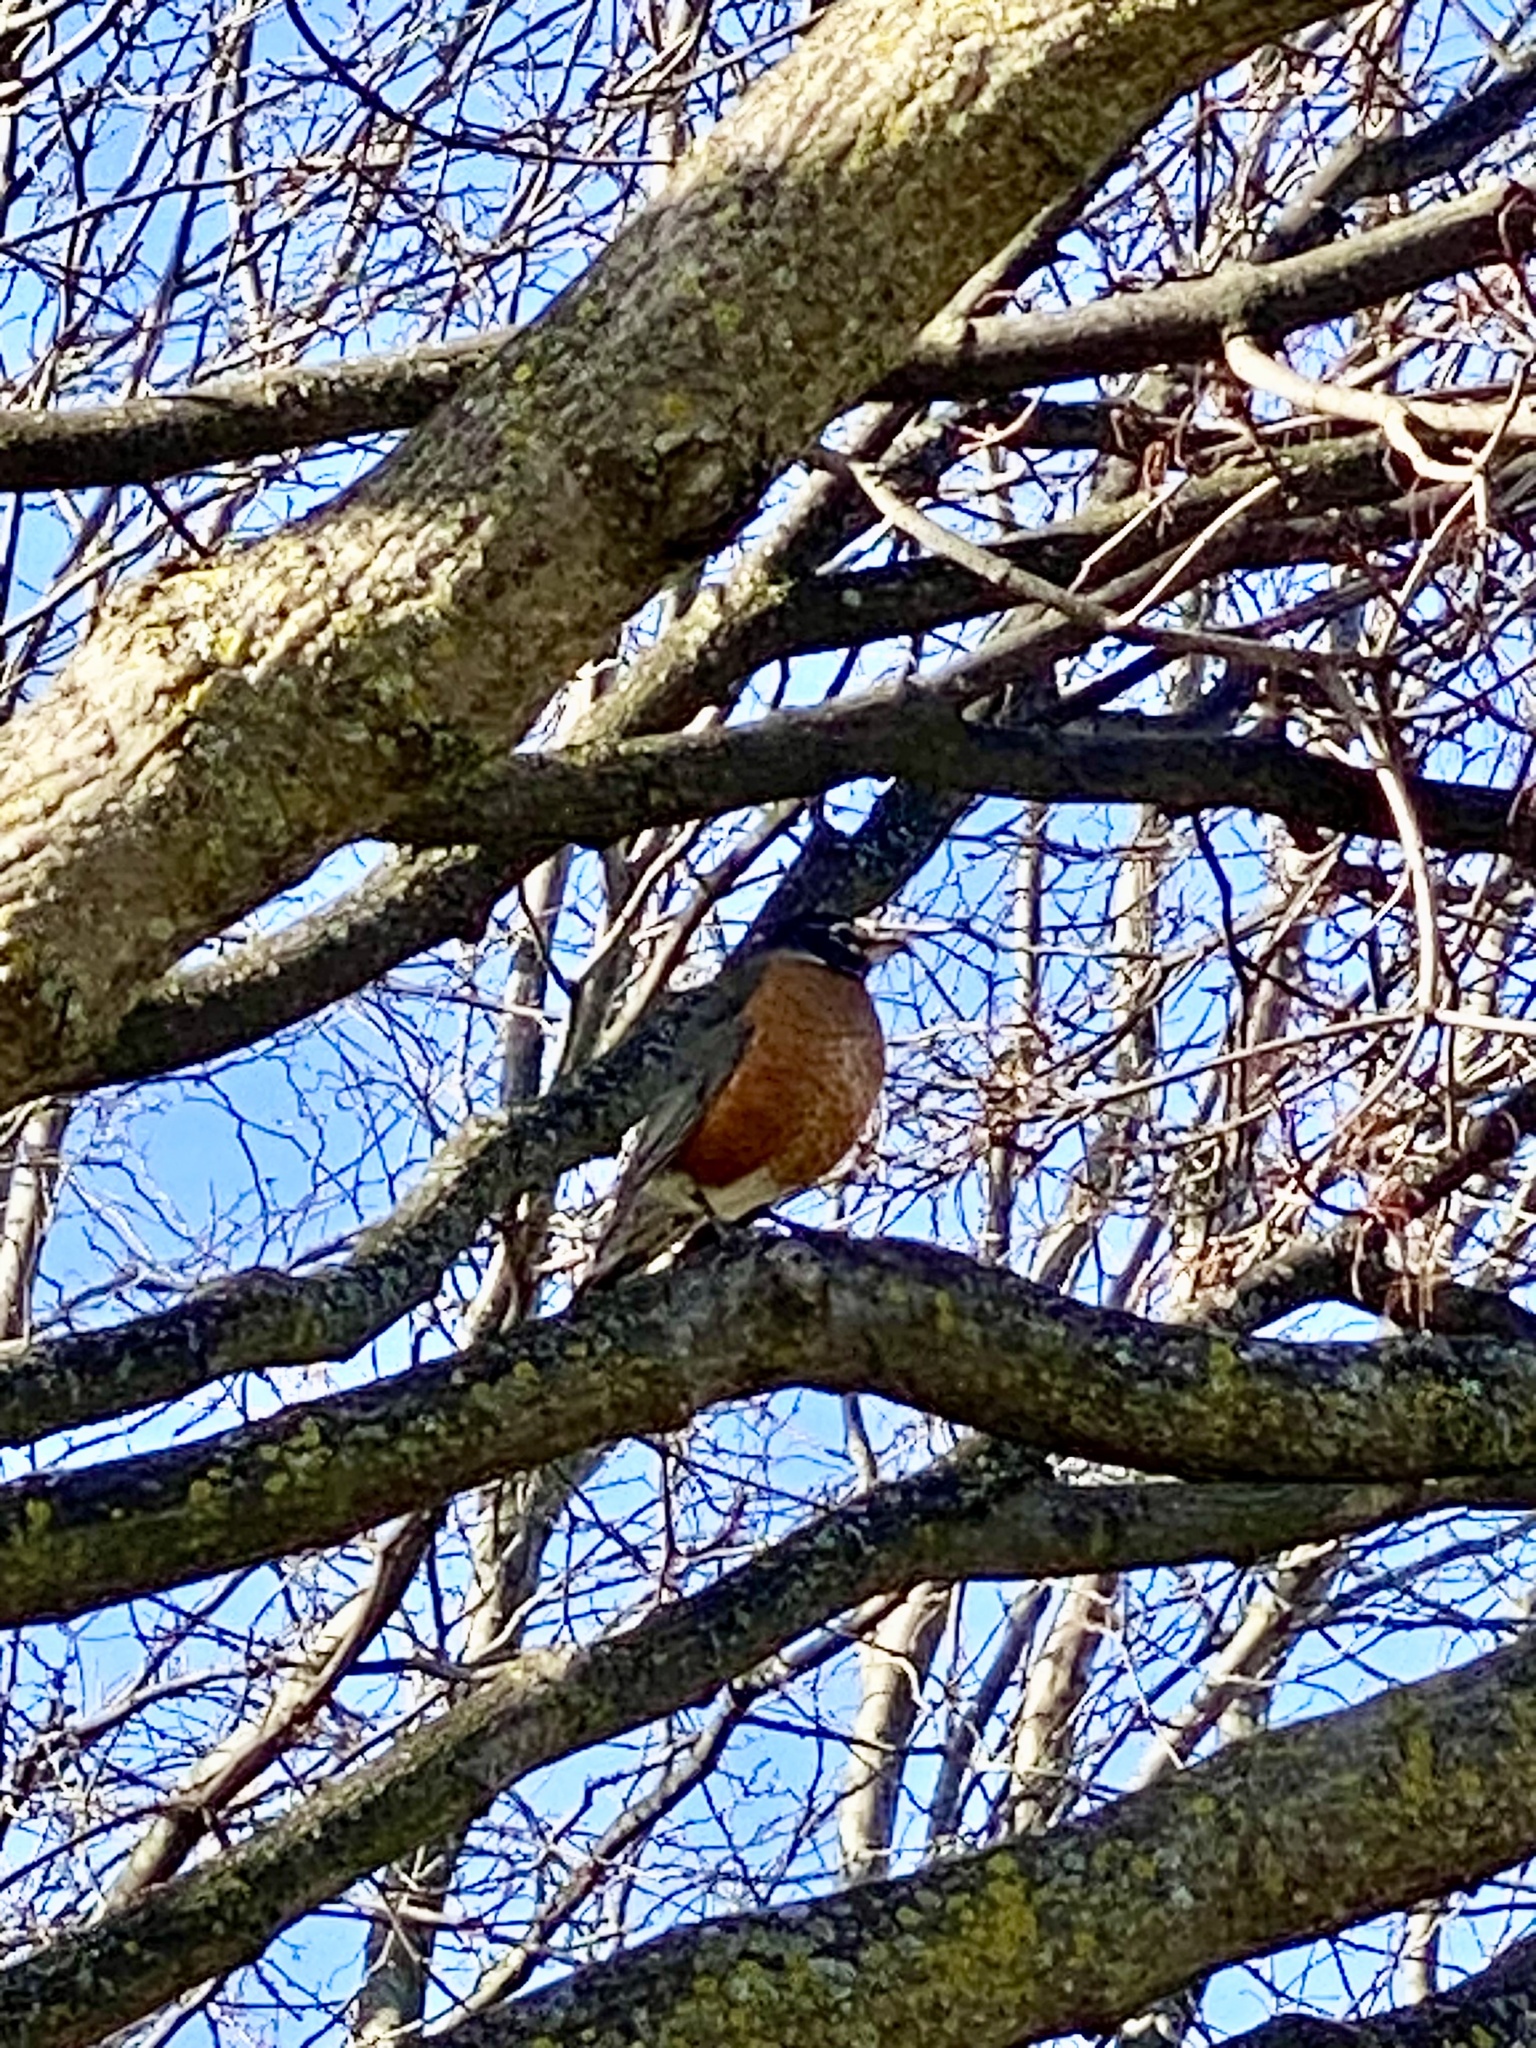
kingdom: Animalia
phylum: Chordata
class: Aves
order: Passeriformes
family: Turdidae
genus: Turdus
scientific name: Turdus migratorius
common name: American robin
